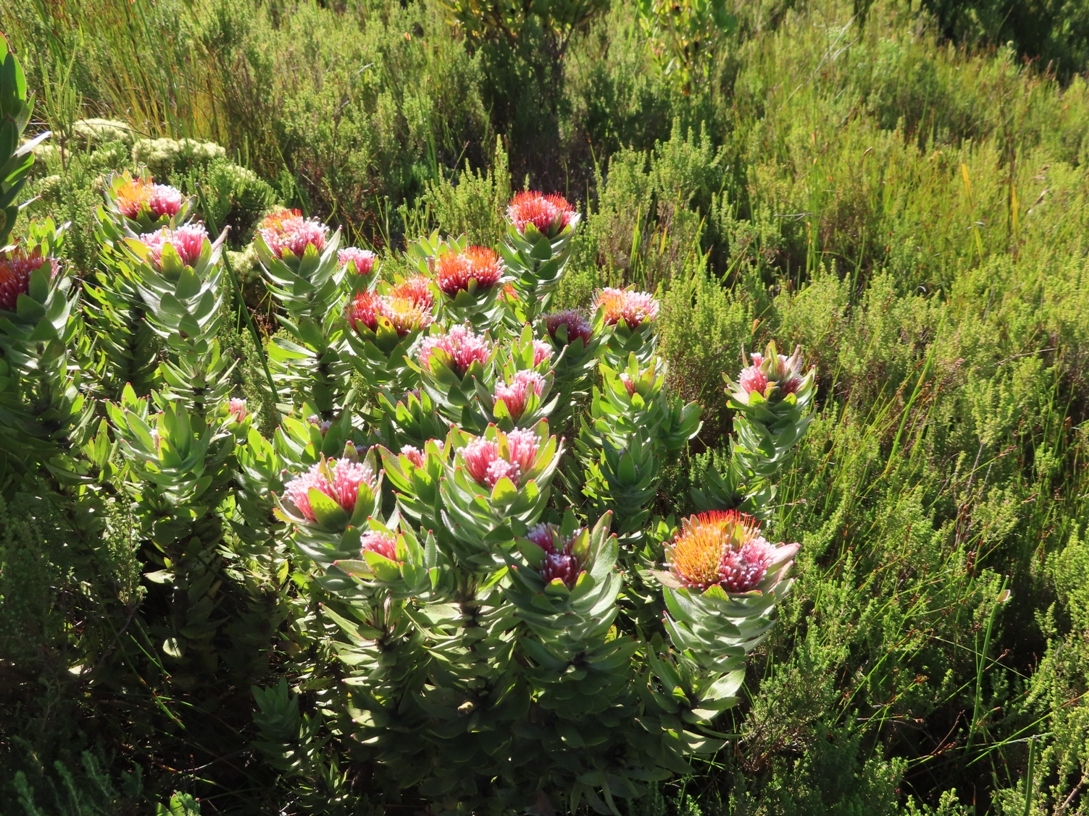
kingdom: Plantae
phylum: Tracheophyta
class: Magnoliopsida
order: Proteales
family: Proteaceae
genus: Leucospermum
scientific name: Leucospermum oleifolium
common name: Matches
